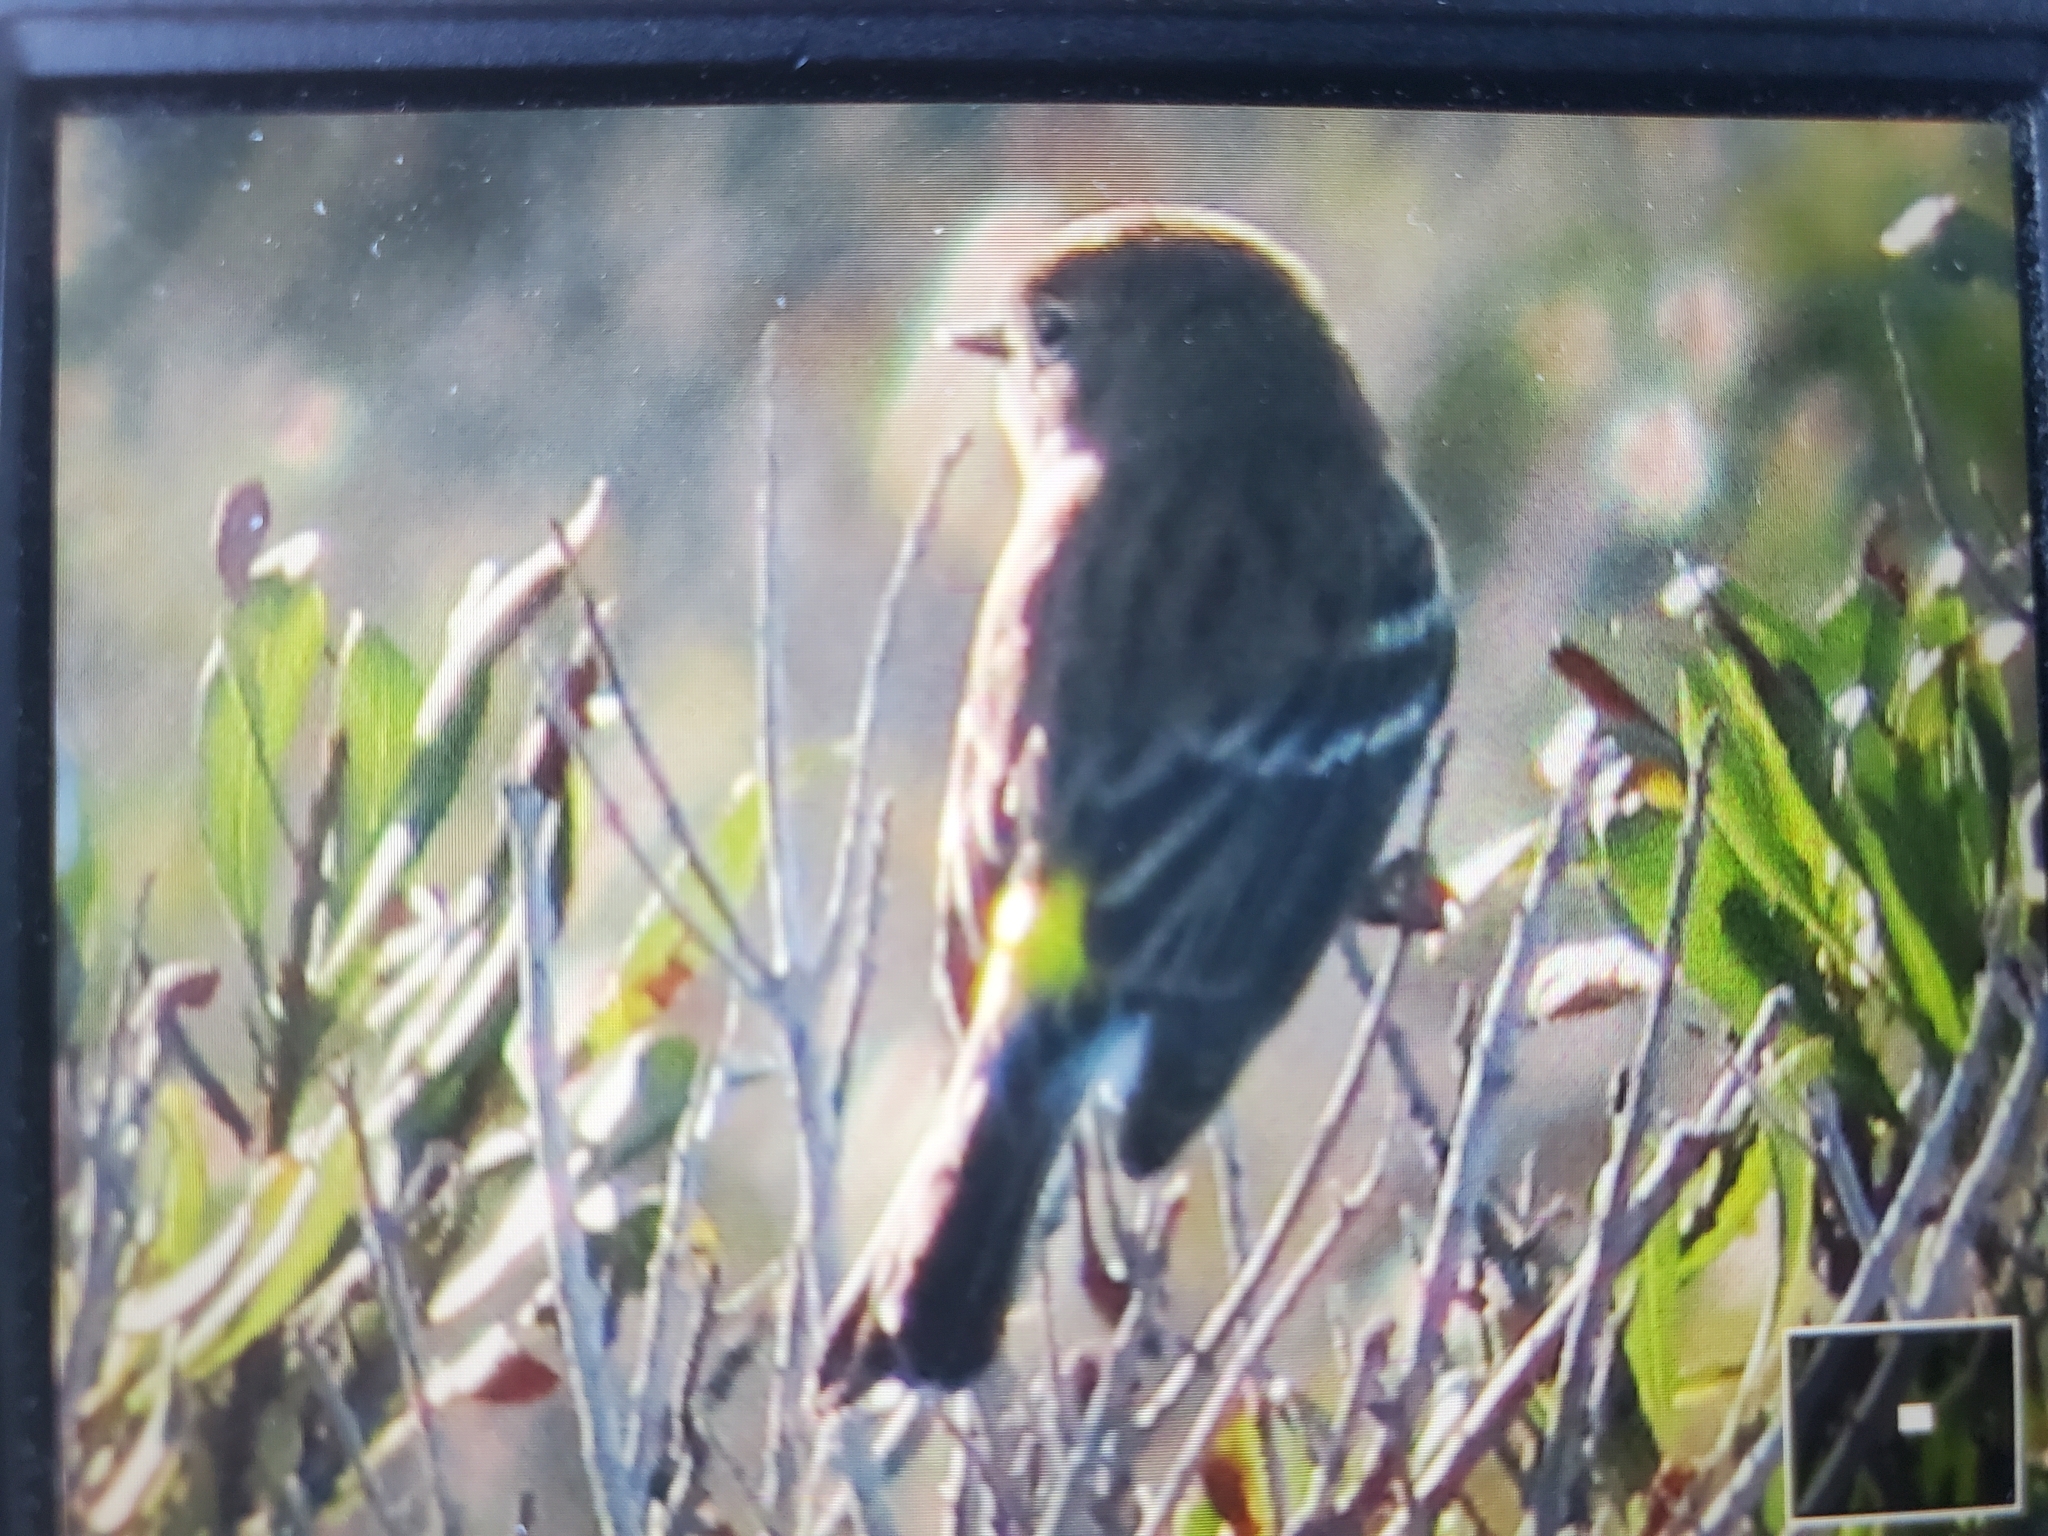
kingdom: Animalia
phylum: Chordata
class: Aves
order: Passeriformes
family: Parulidae
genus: Setophaga
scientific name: Setophaga coronata
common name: Myrtle warbler
